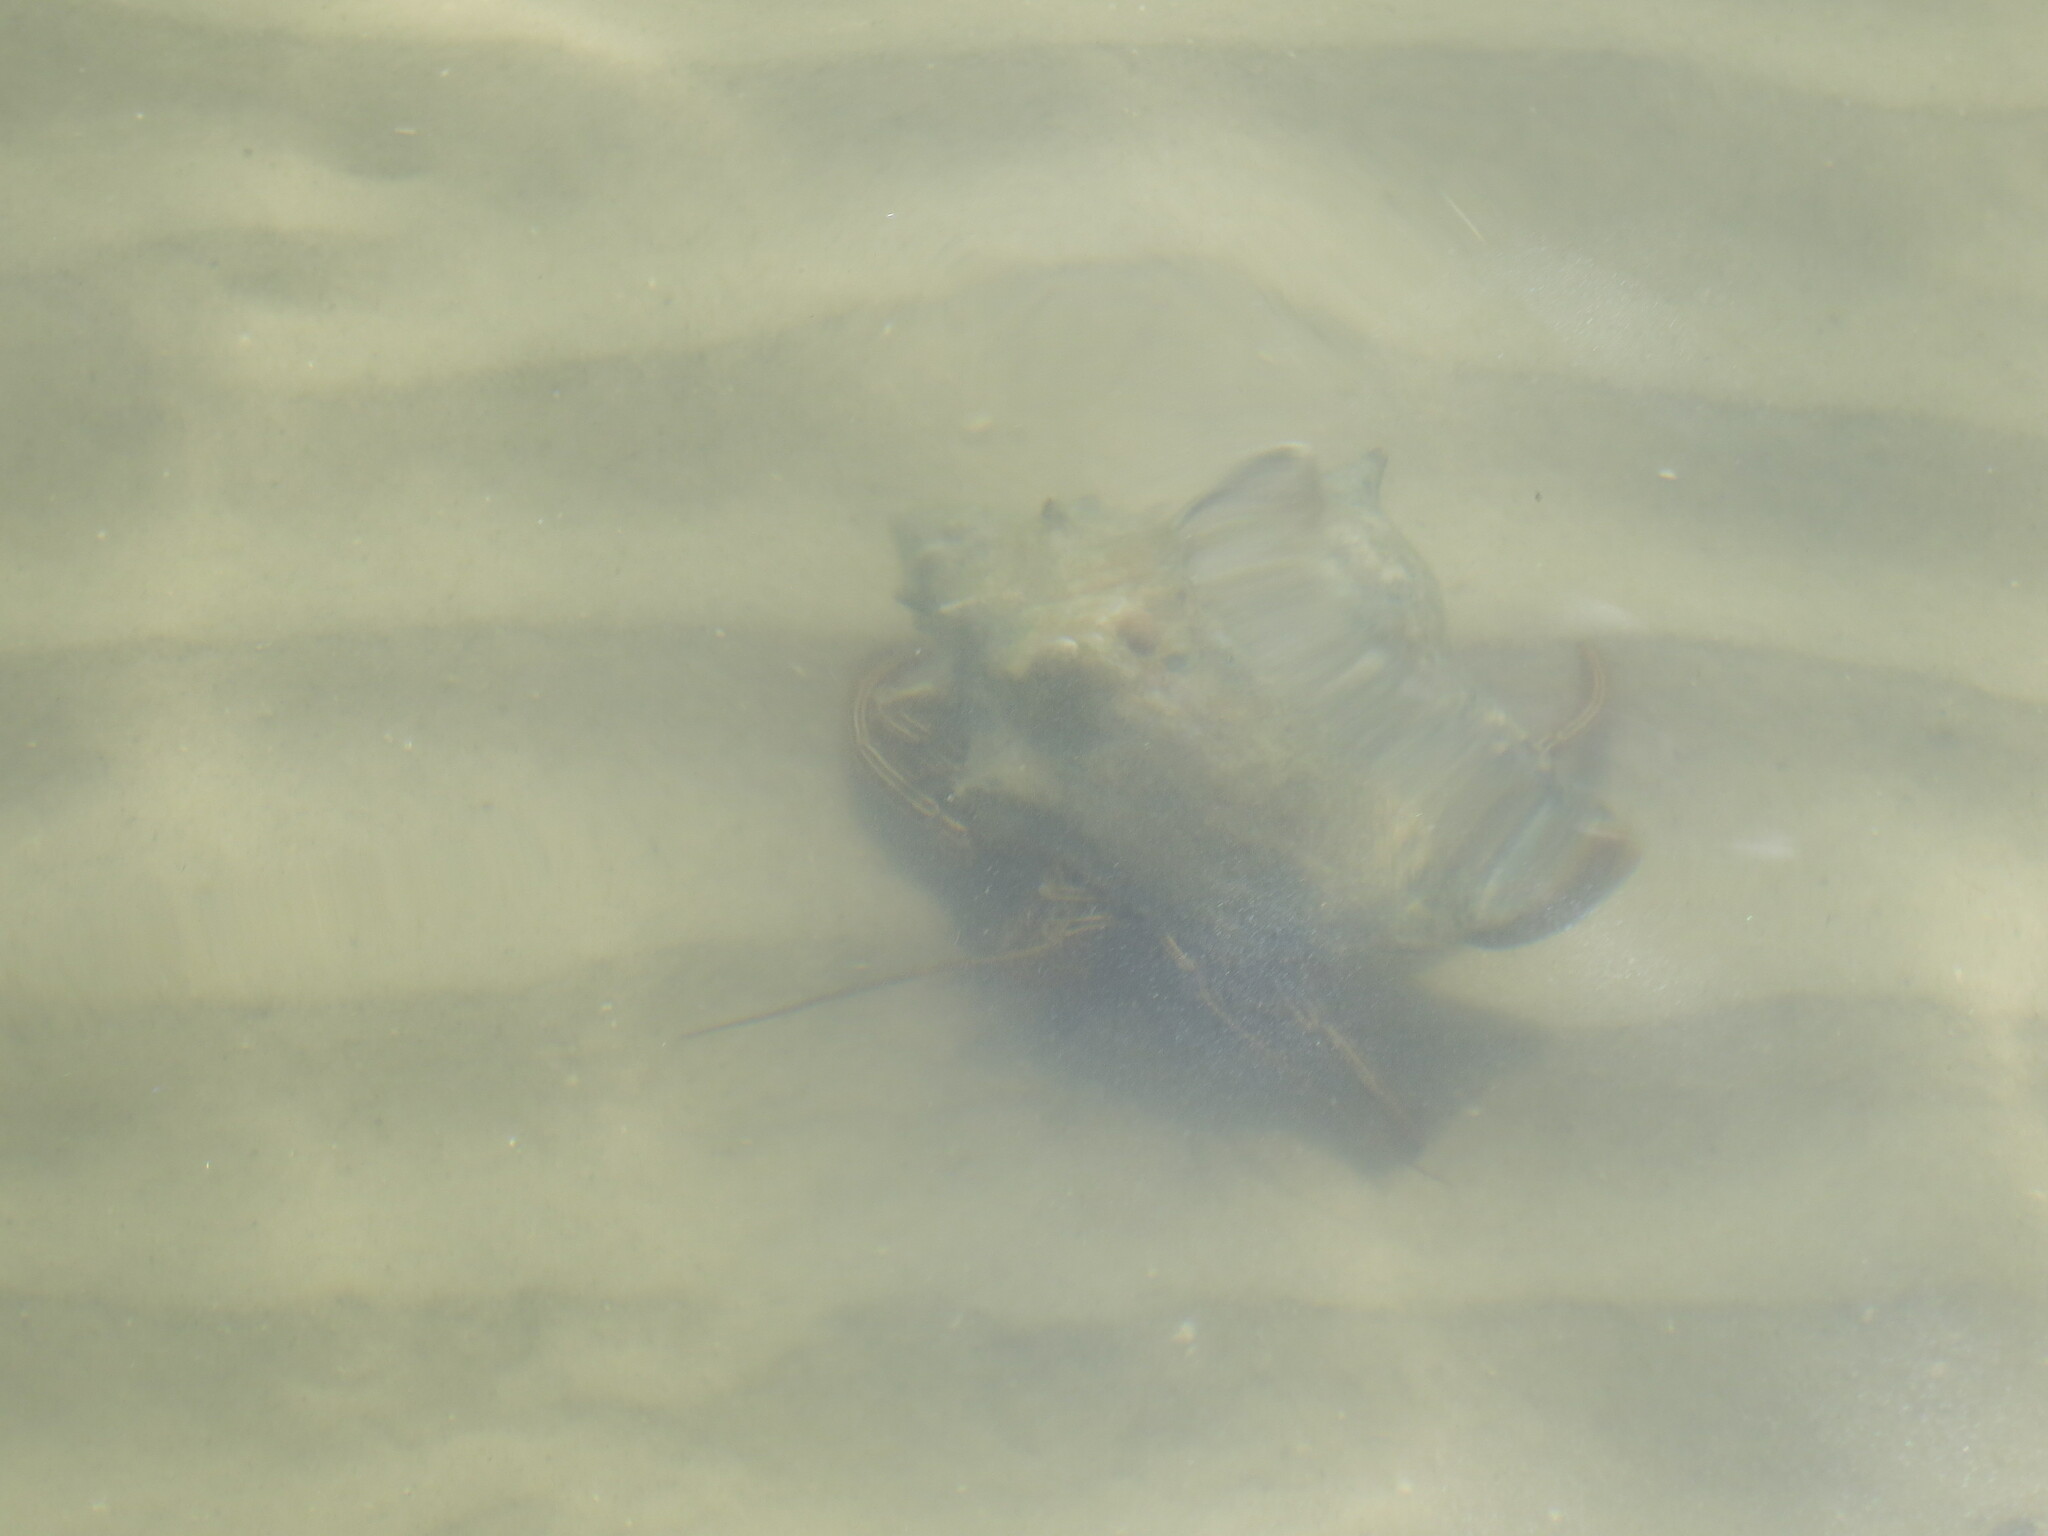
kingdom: Animalia
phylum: Arthropoda
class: Malacostraca
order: Decapoda
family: Diogenidae
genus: Clibanarius
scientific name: Clibanarius vittatus
